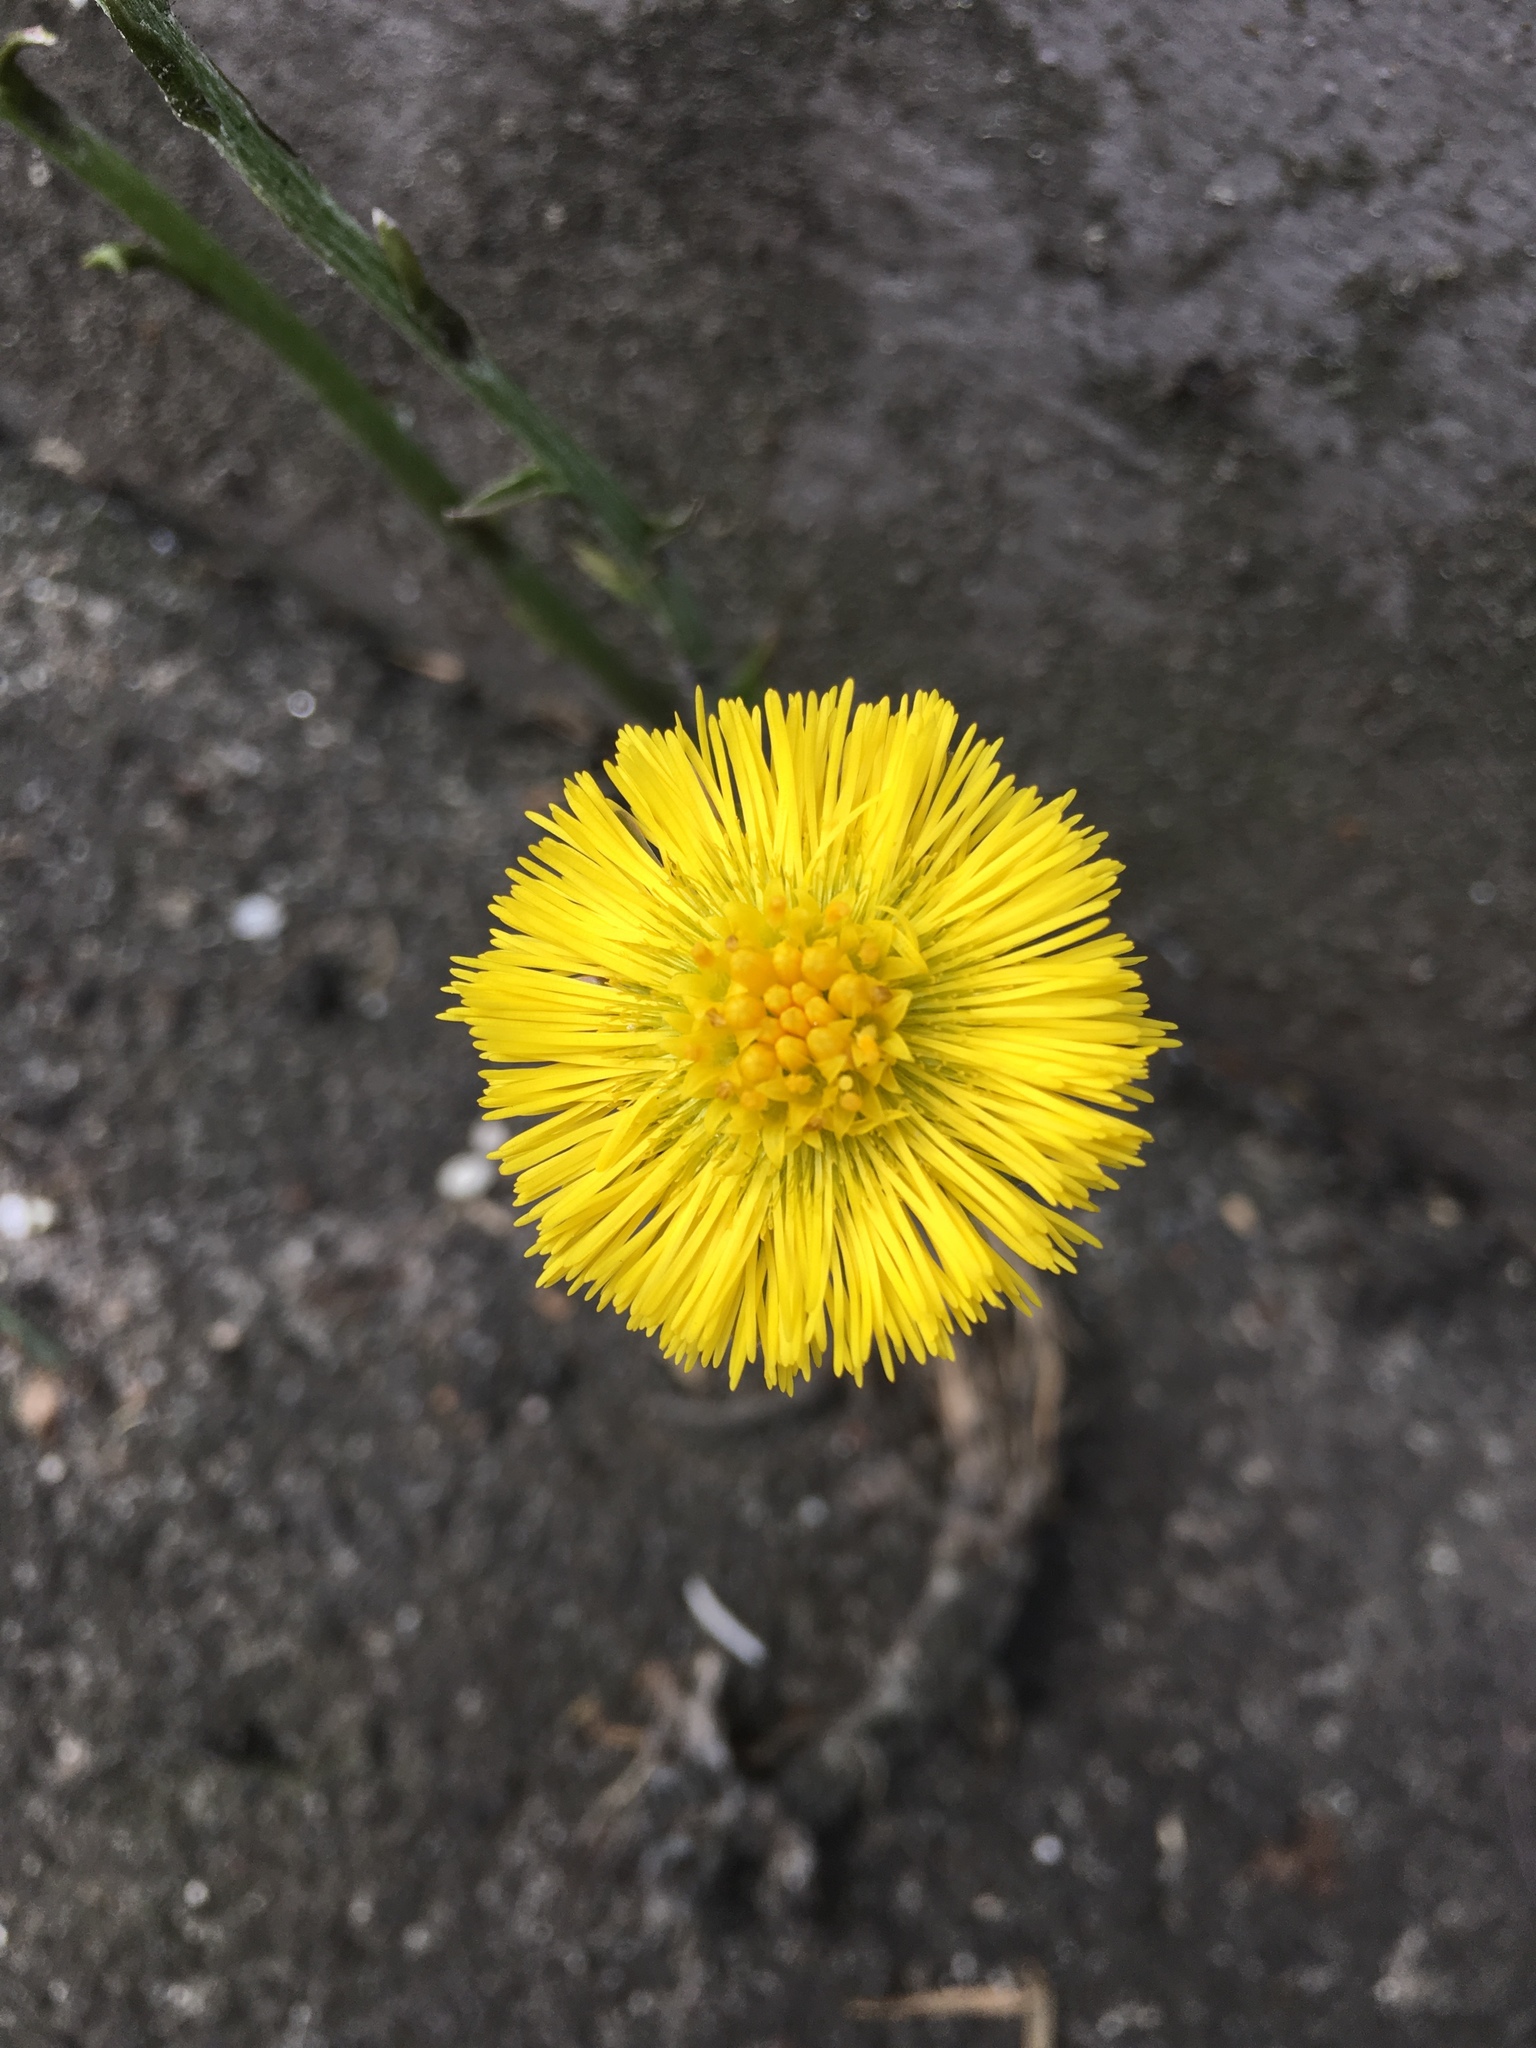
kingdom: Plantae
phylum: Tracheophyta
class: Magnoliopsida
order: Asterales
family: Asteraceae
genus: Tussilago
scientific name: Tussilago farfara
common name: Coltsfoot
